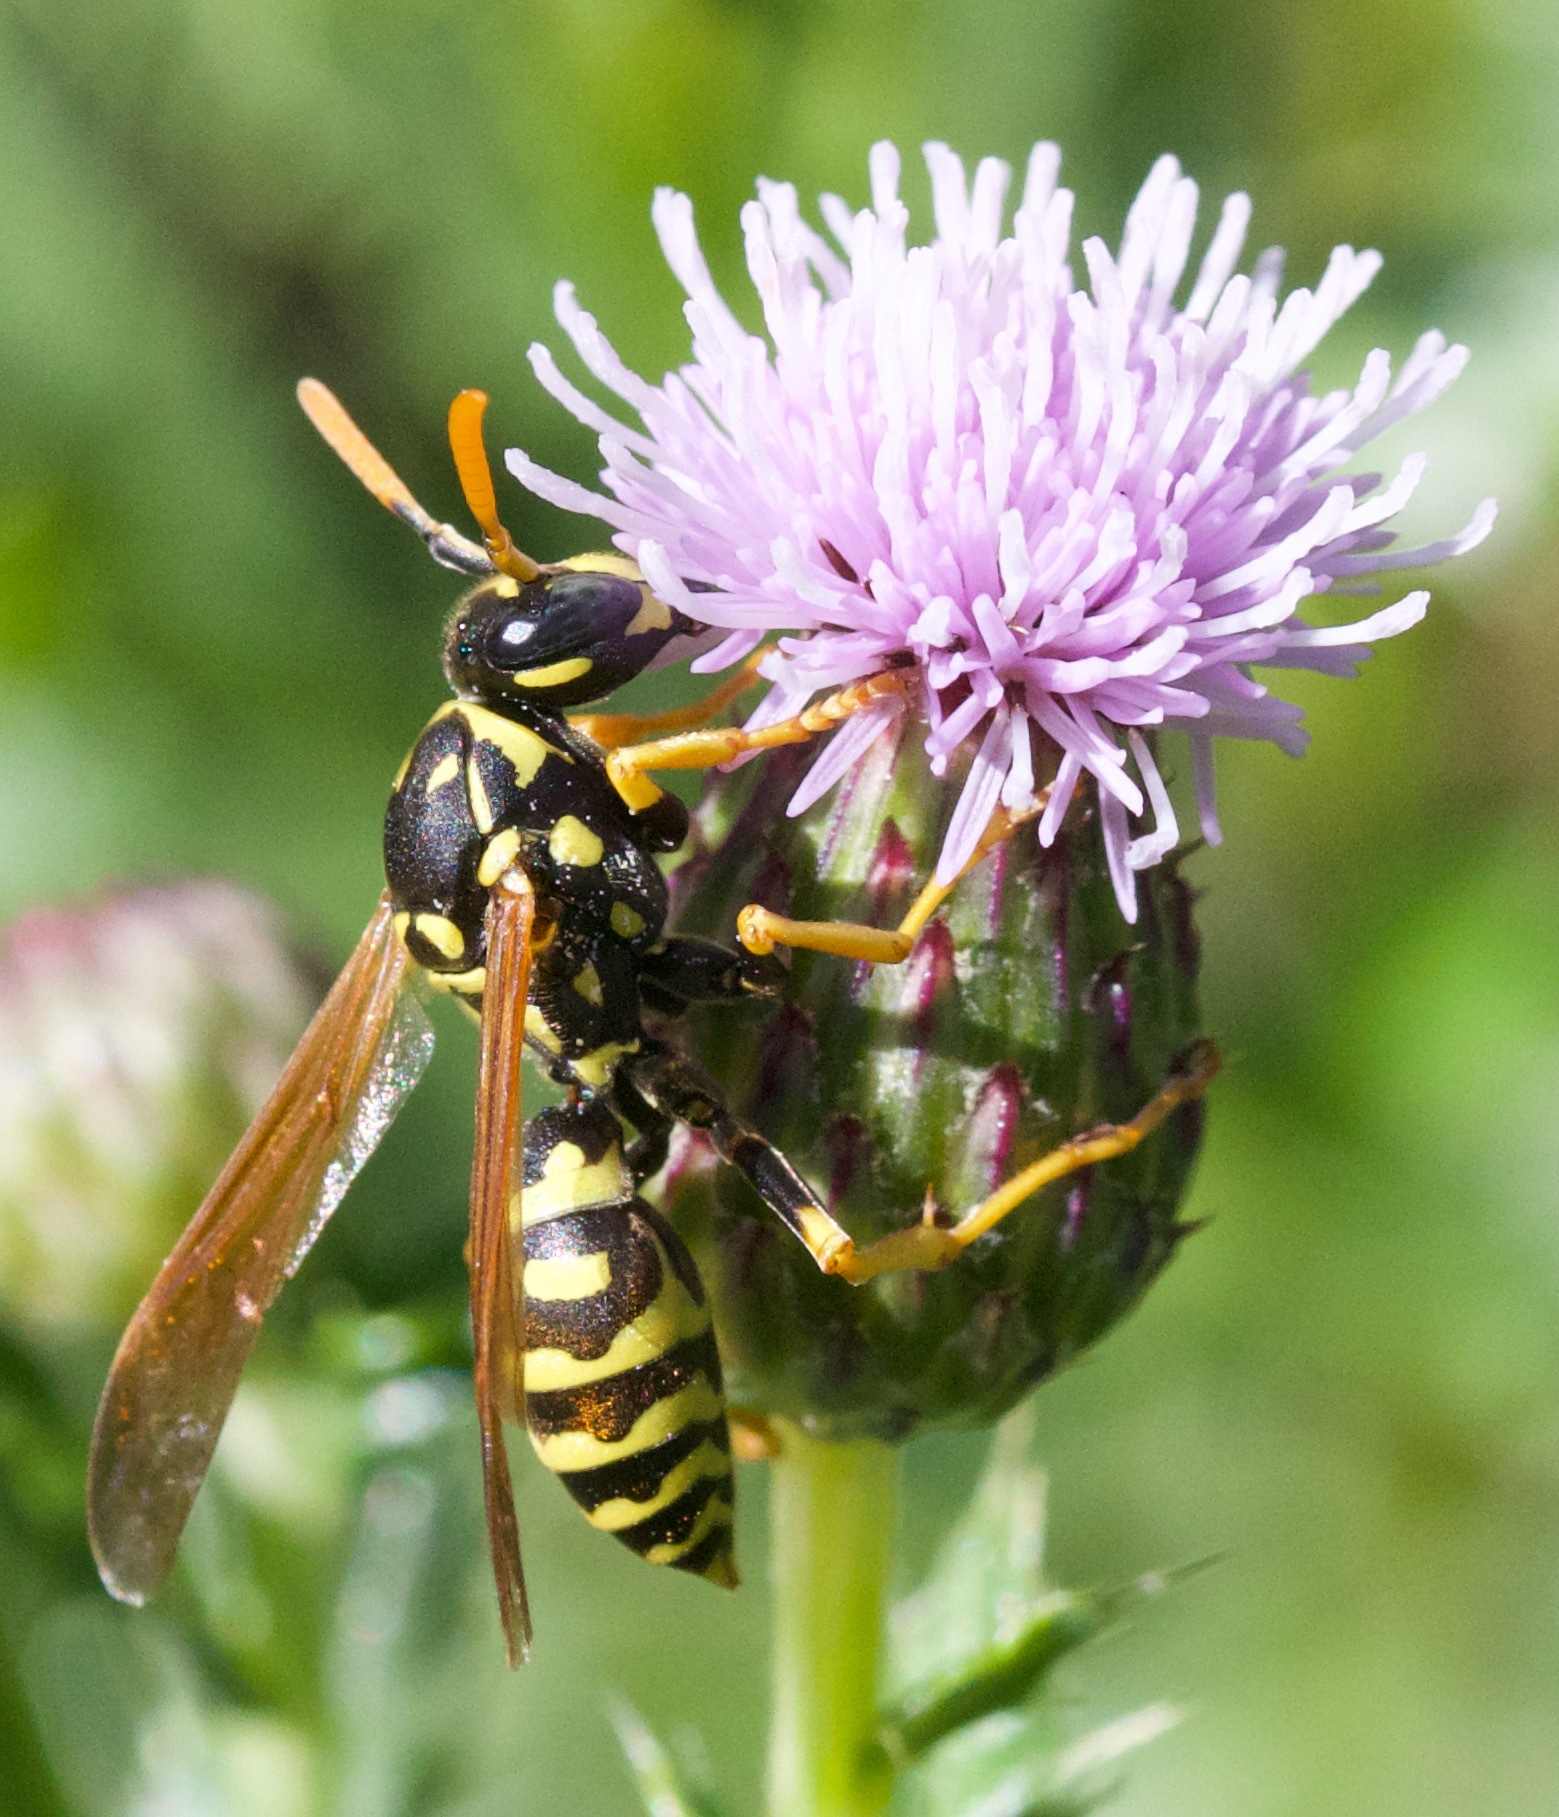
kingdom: Animalia
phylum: Arthropoda
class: Insecta
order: Hymenoptera
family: Eumenidae
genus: Polistes
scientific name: Polistes dominula
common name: Paper wasp
